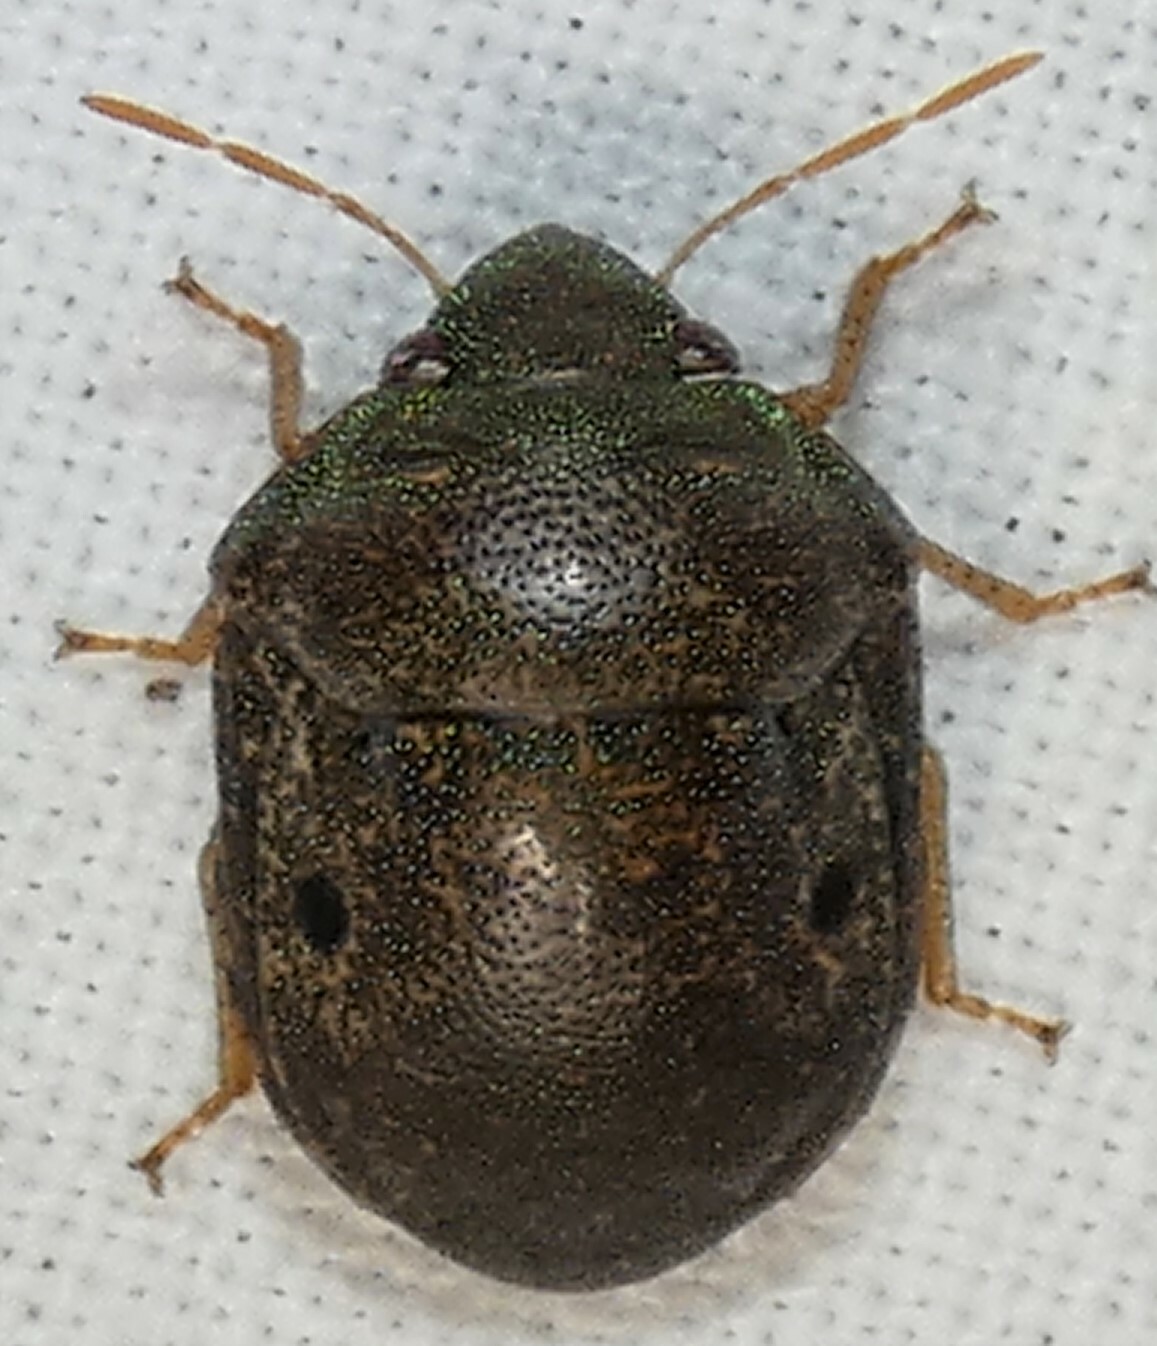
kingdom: Animalia
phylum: Arthropoda
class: Insecta
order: Hemiptera
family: Scutelleridae
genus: Diolcus
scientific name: Diolcus chrysorrhoeus
